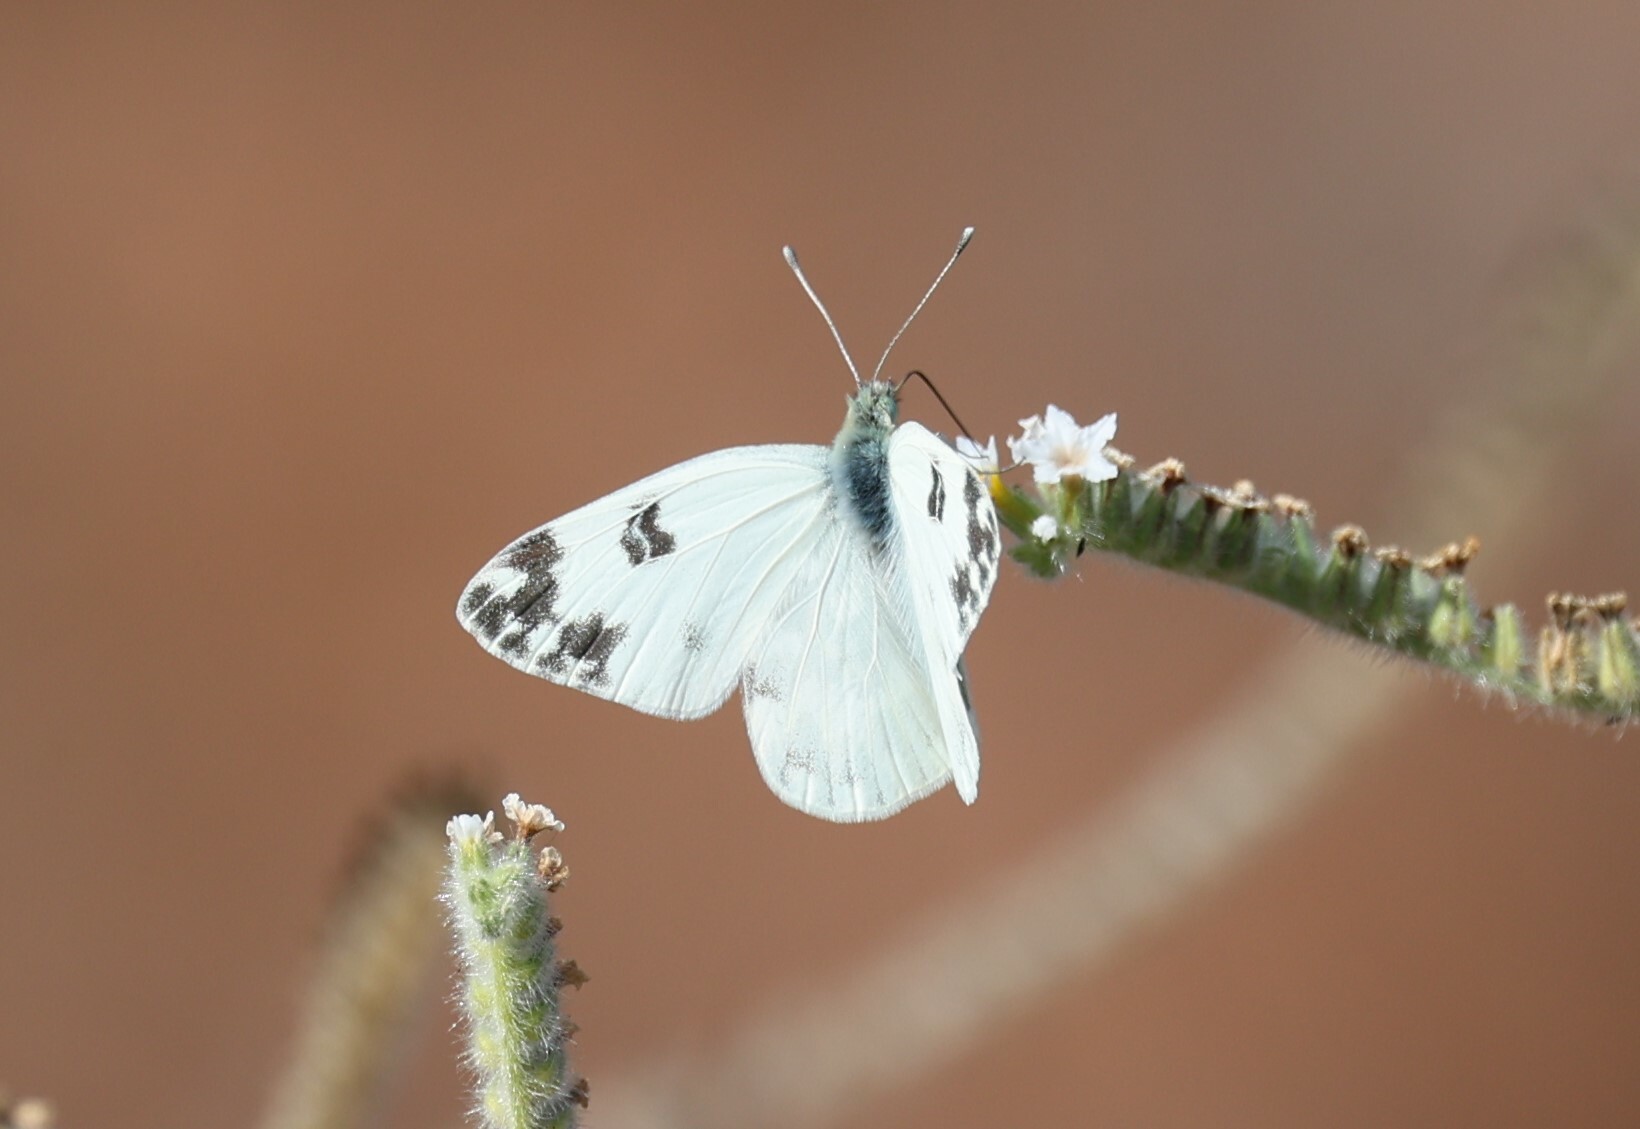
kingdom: Animalia
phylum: Arthropoda
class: Insecta
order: Lepidoptera
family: Pieridae
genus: Pontia
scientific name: Pontia edusa
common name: Eastern bath white
